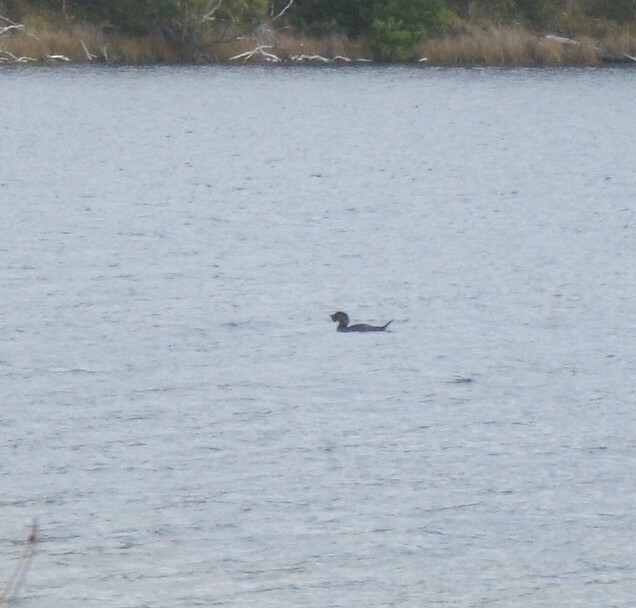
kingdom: Animalia
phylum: Chordata
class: Aves
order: Anseriformes
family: Anatidae
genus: Biziura
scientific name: Biziura lobata
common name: Musk duck
